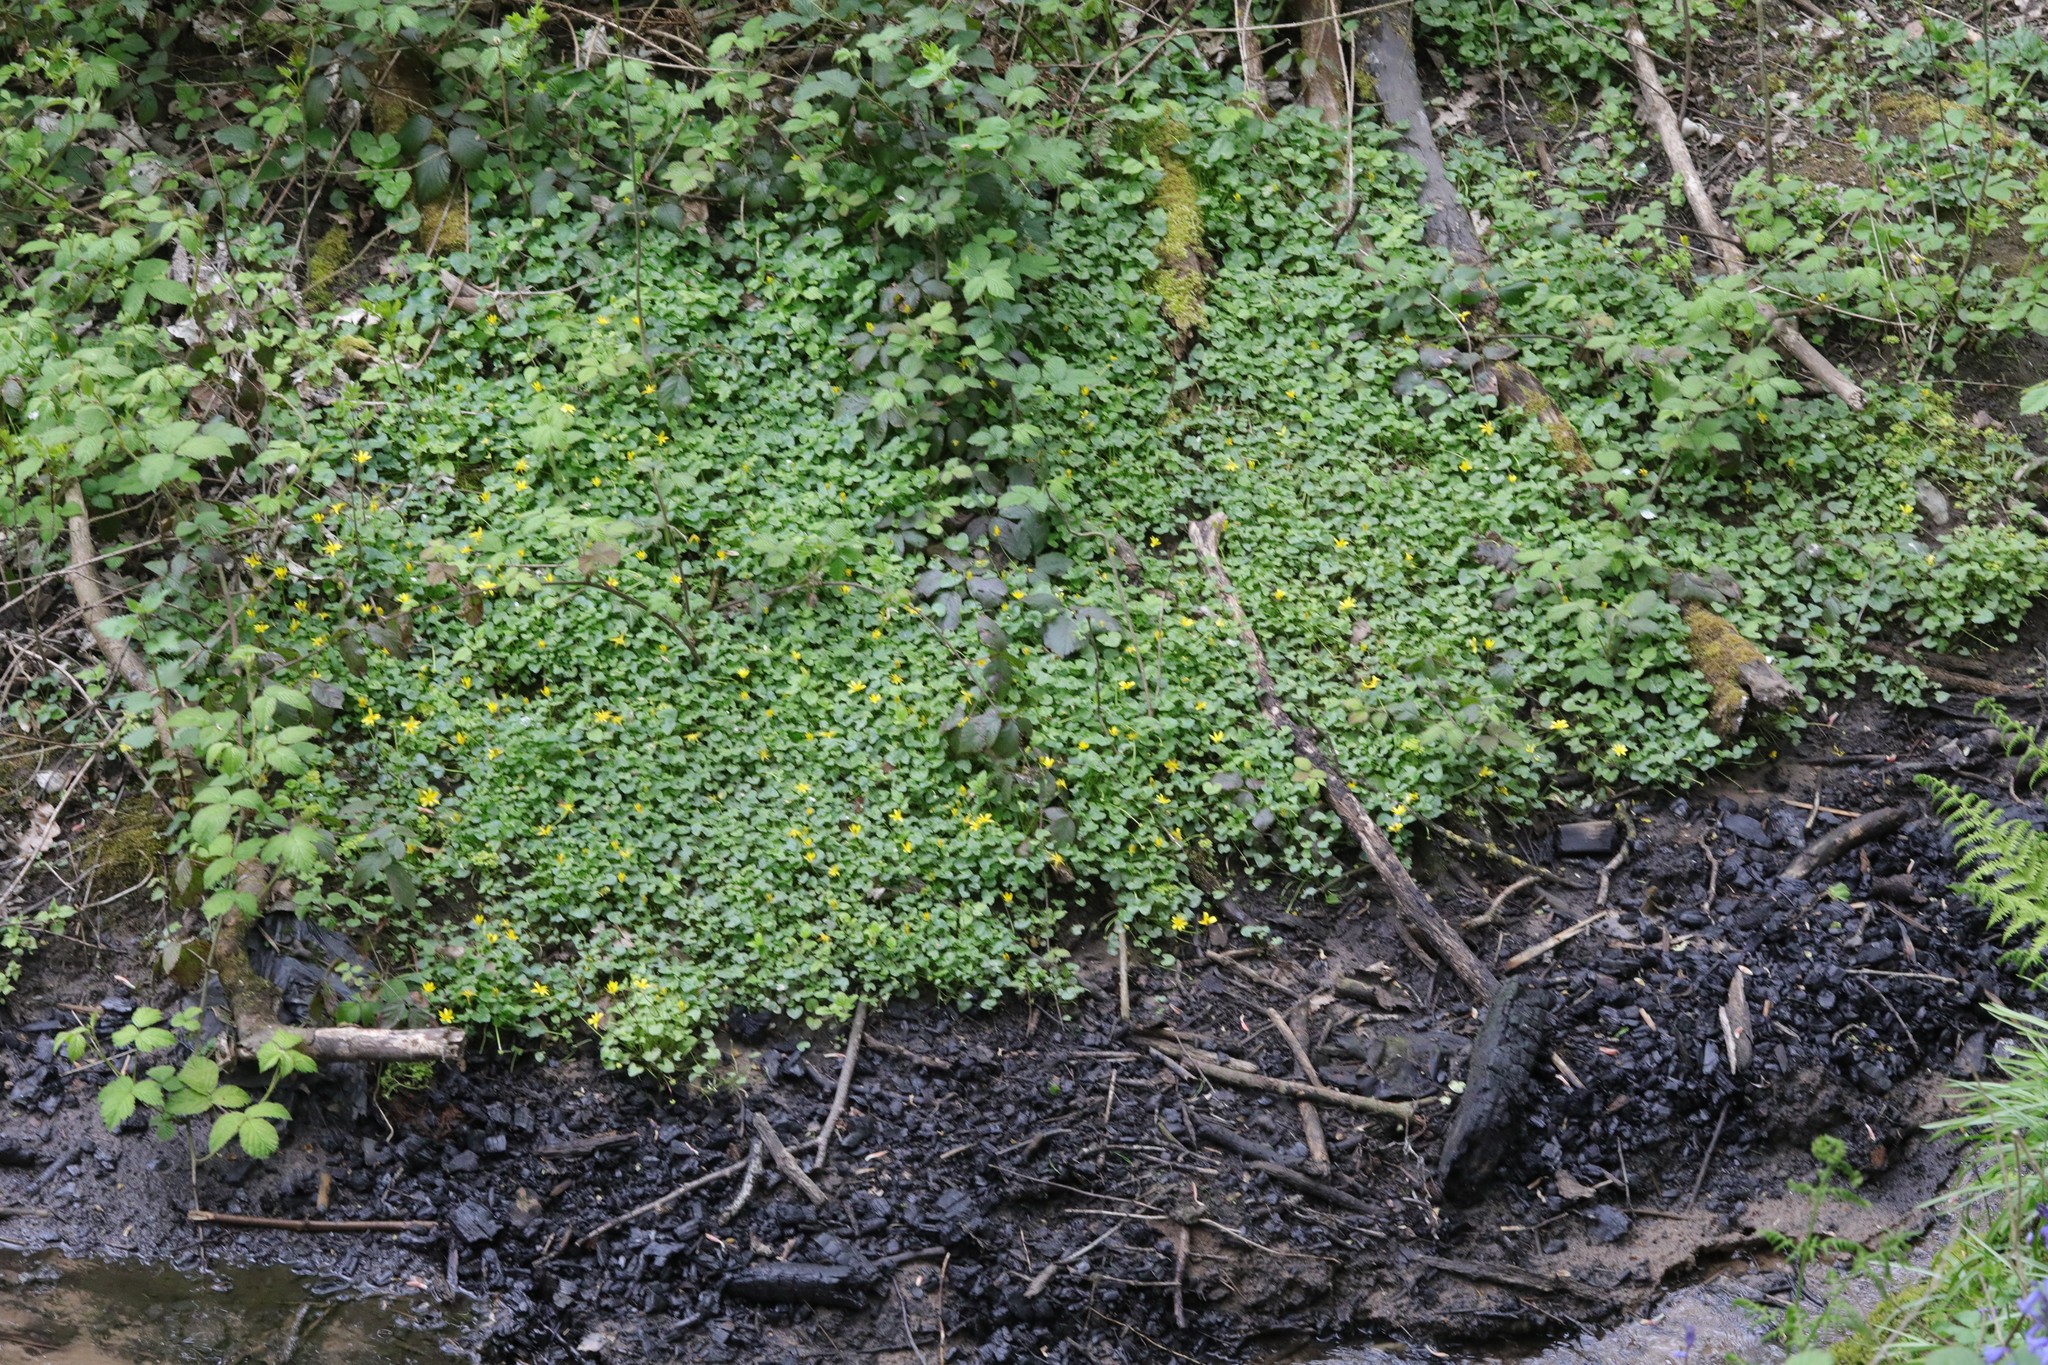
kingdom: Plantae
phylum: Tracheophyta
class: Magnoliopsida
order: Ranunculales
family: Ranunculaceae
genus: Ficaria
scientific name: Ficaria verna
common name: Lesser celandine
